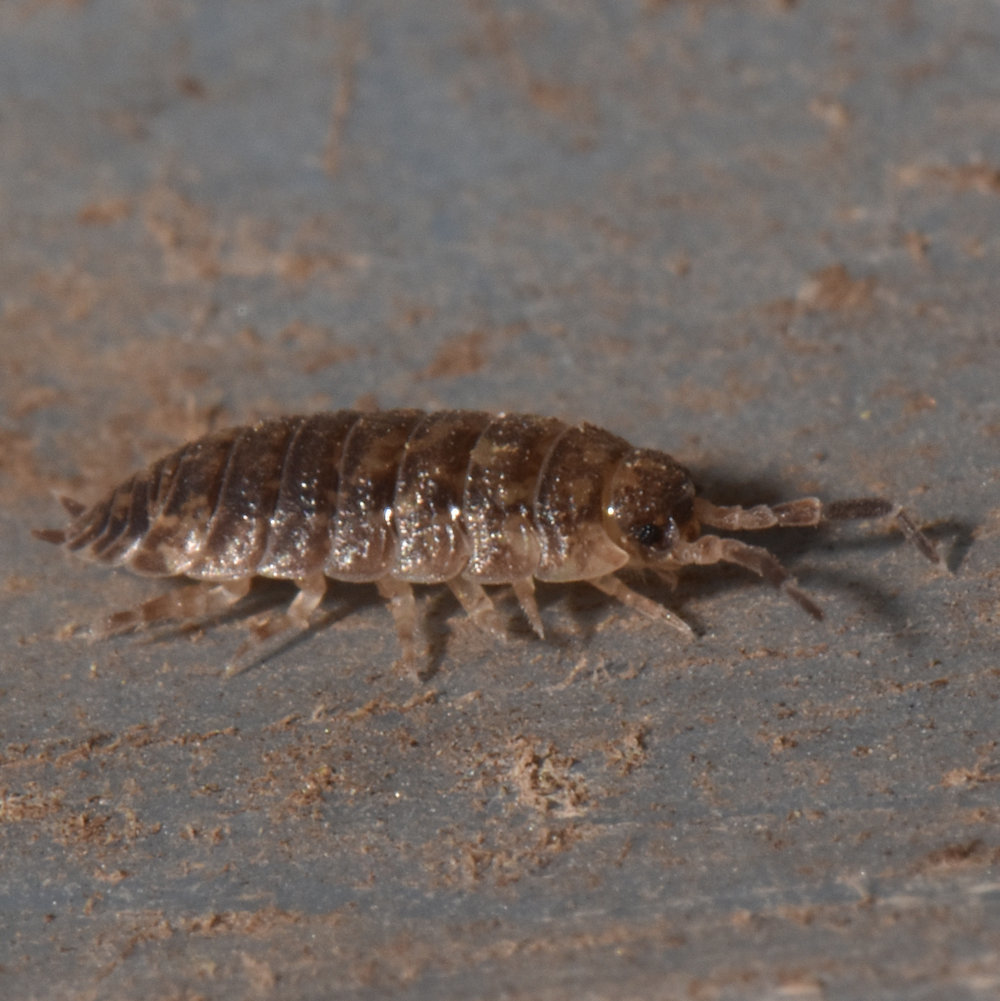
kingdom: Animalia
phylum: Arthropoda
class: Malacostraca
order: Isopoda
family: Porcellionidae
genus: Porcellio
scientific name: Porcellio scaber
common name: Common rough woodlouse
